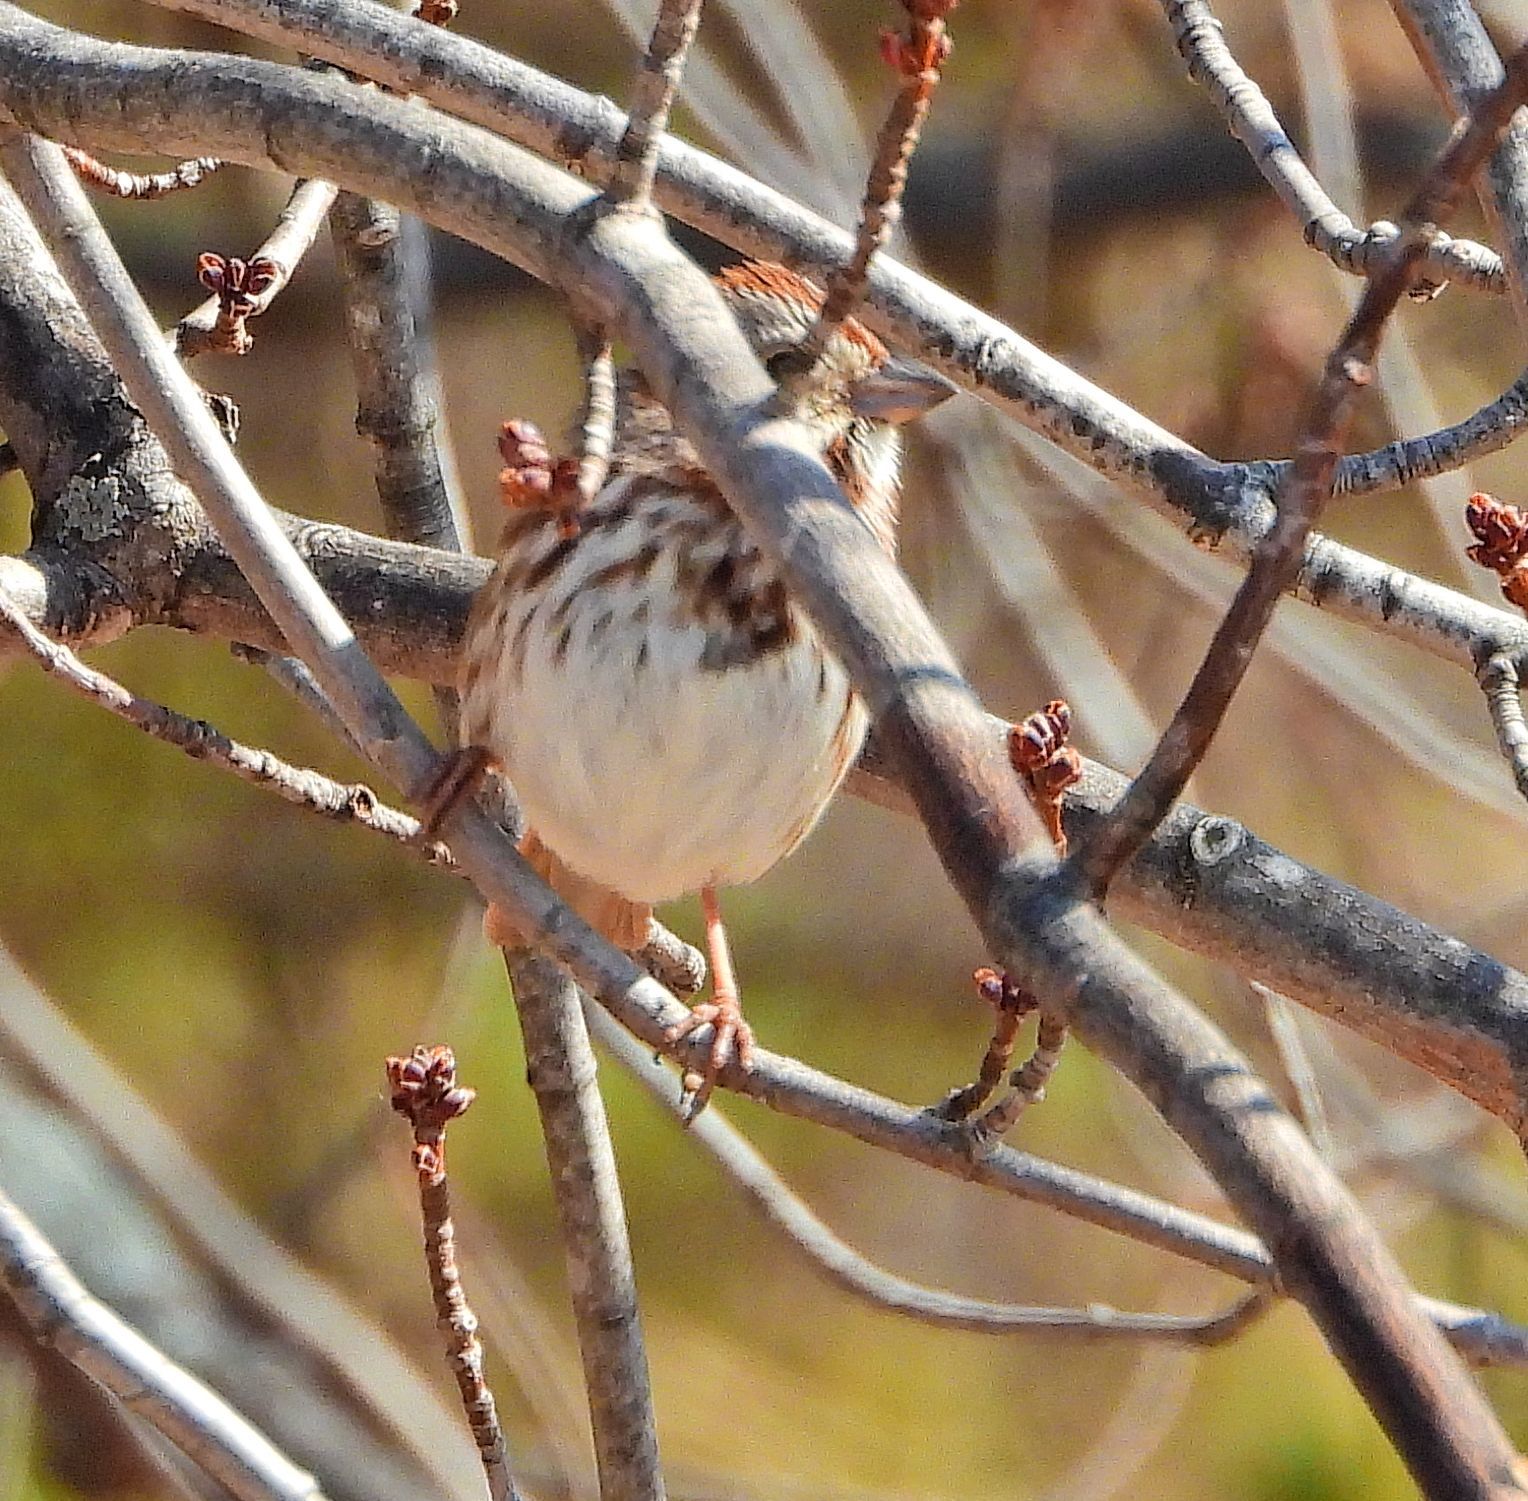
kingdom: Animalia
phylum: Chordata
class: Aves
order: Passeriformes
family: Passerellidae
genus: Melospiza
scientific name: Melospiza melodia
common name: Song sparrow
